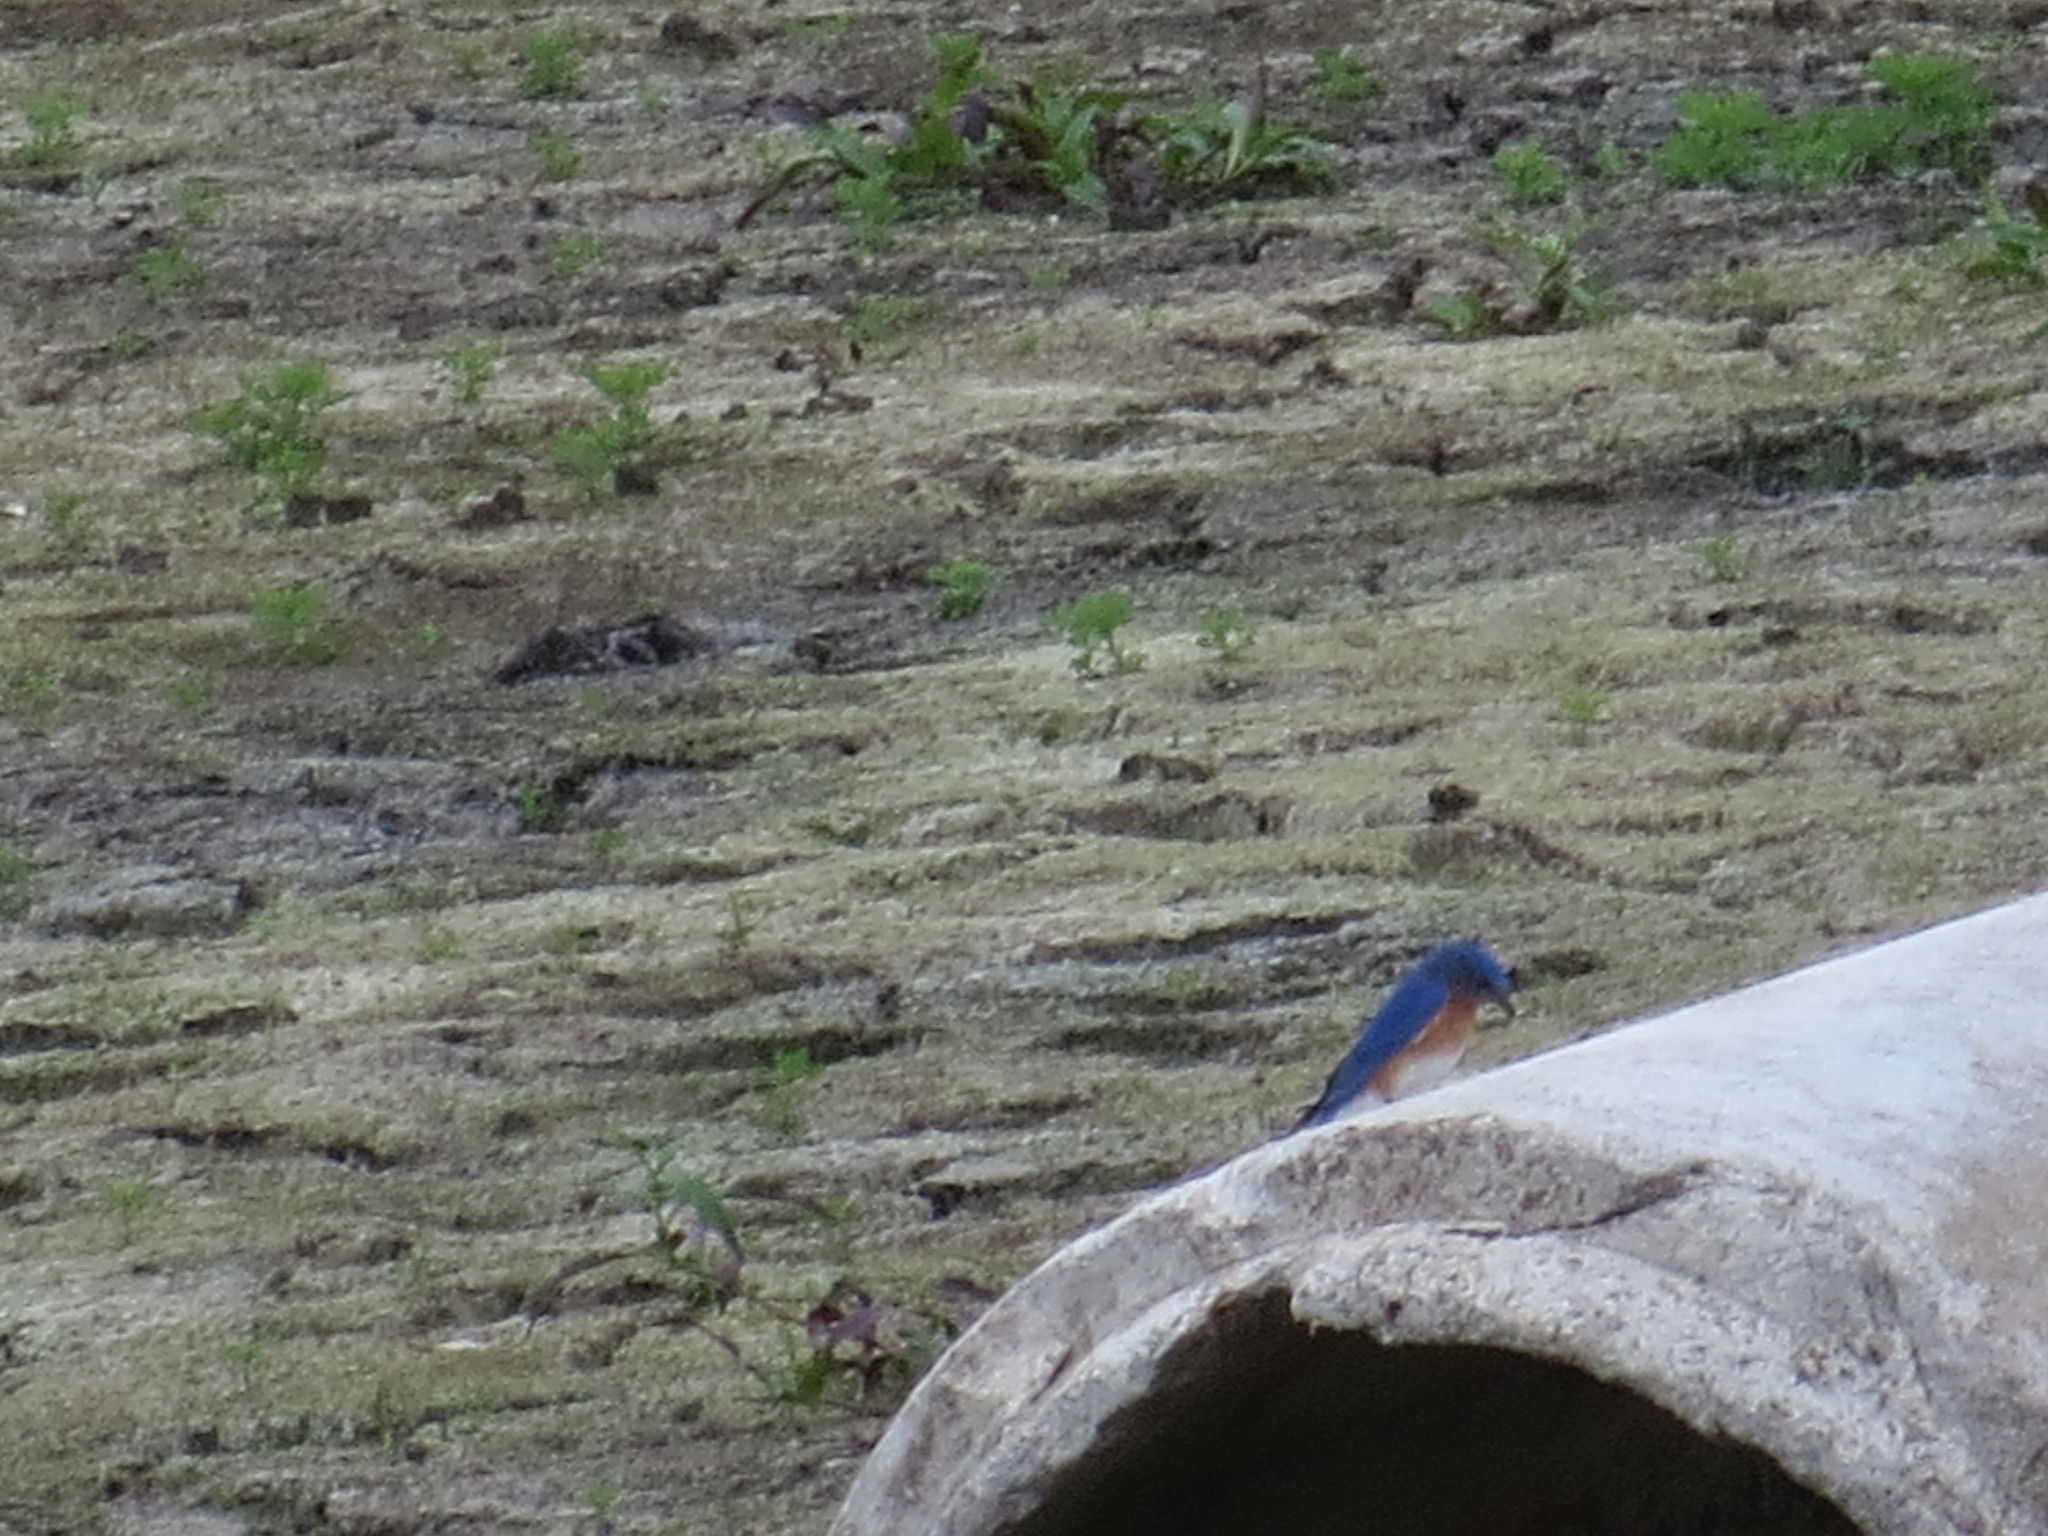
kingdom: Animalia
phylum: Chordata
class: Aves
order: Passeriformes
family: Turdidae
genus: Sialia
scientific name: Sialia sialis
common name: Eastern bluebird
